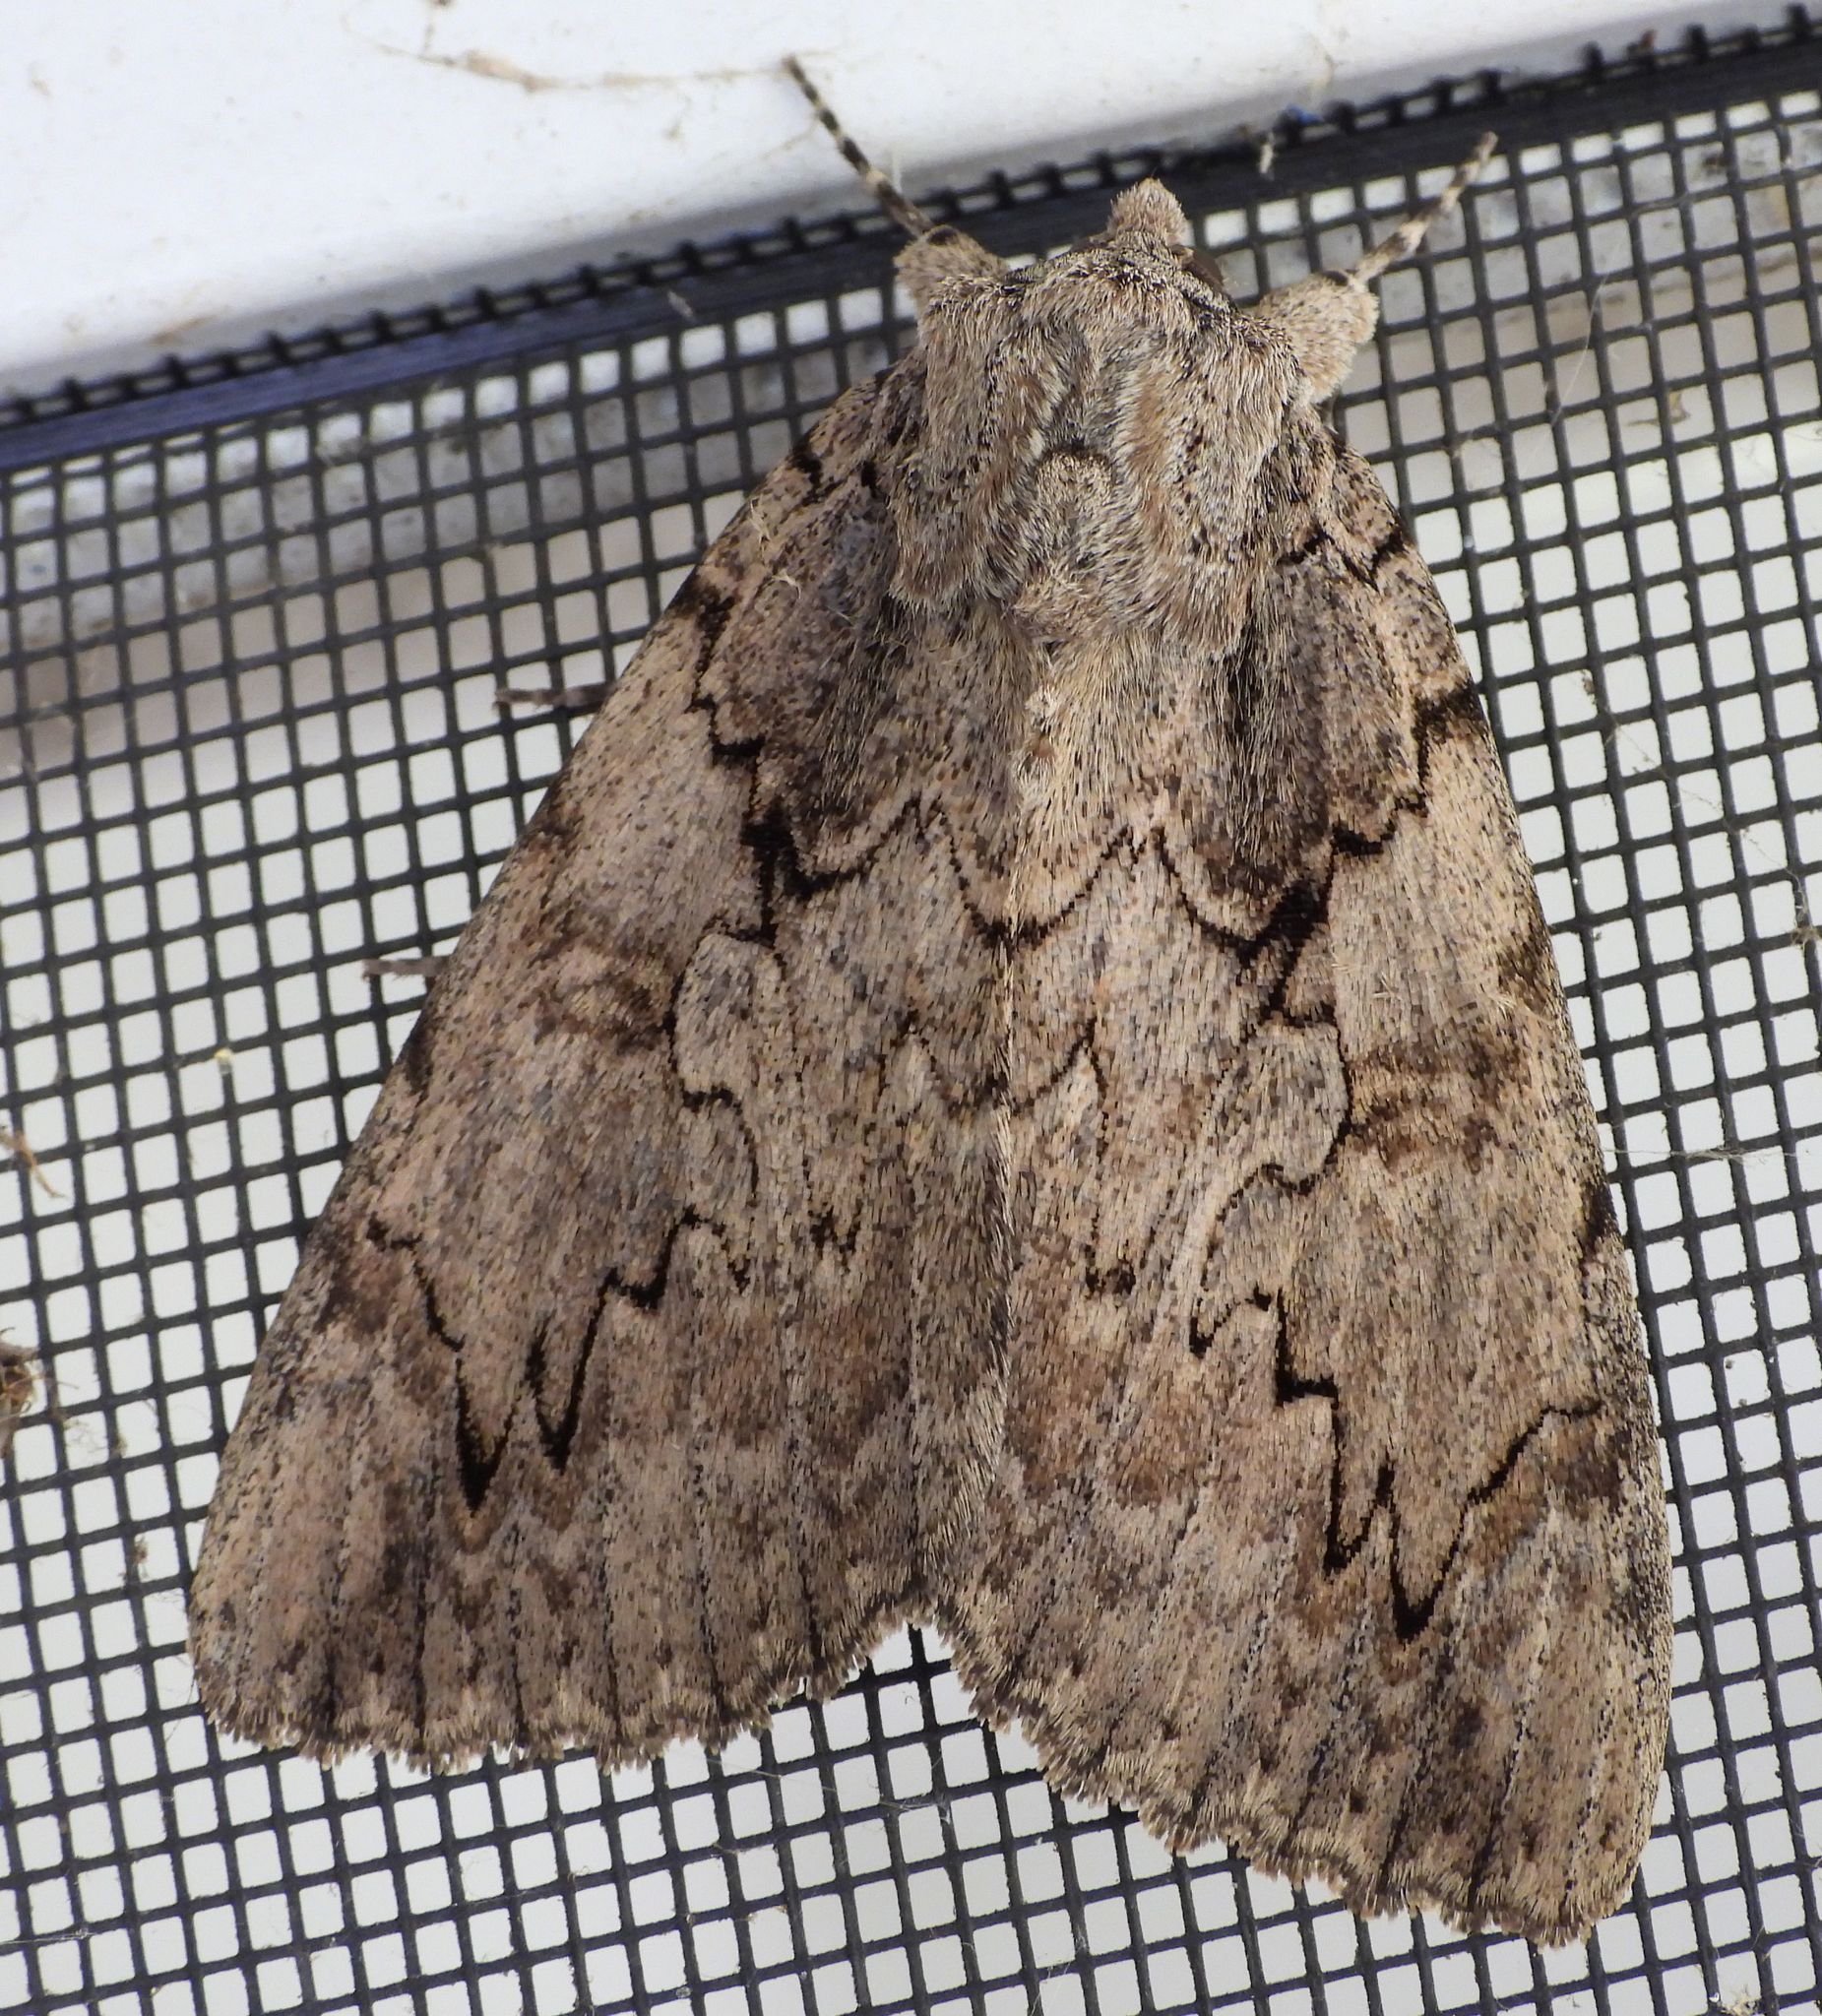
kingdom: Animalia
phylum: Arthropoda
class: Insecta
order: Lepidoptera
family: Erebidae
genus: Catocala
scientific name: Catocala amatrix
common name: Sweetheart underwing
